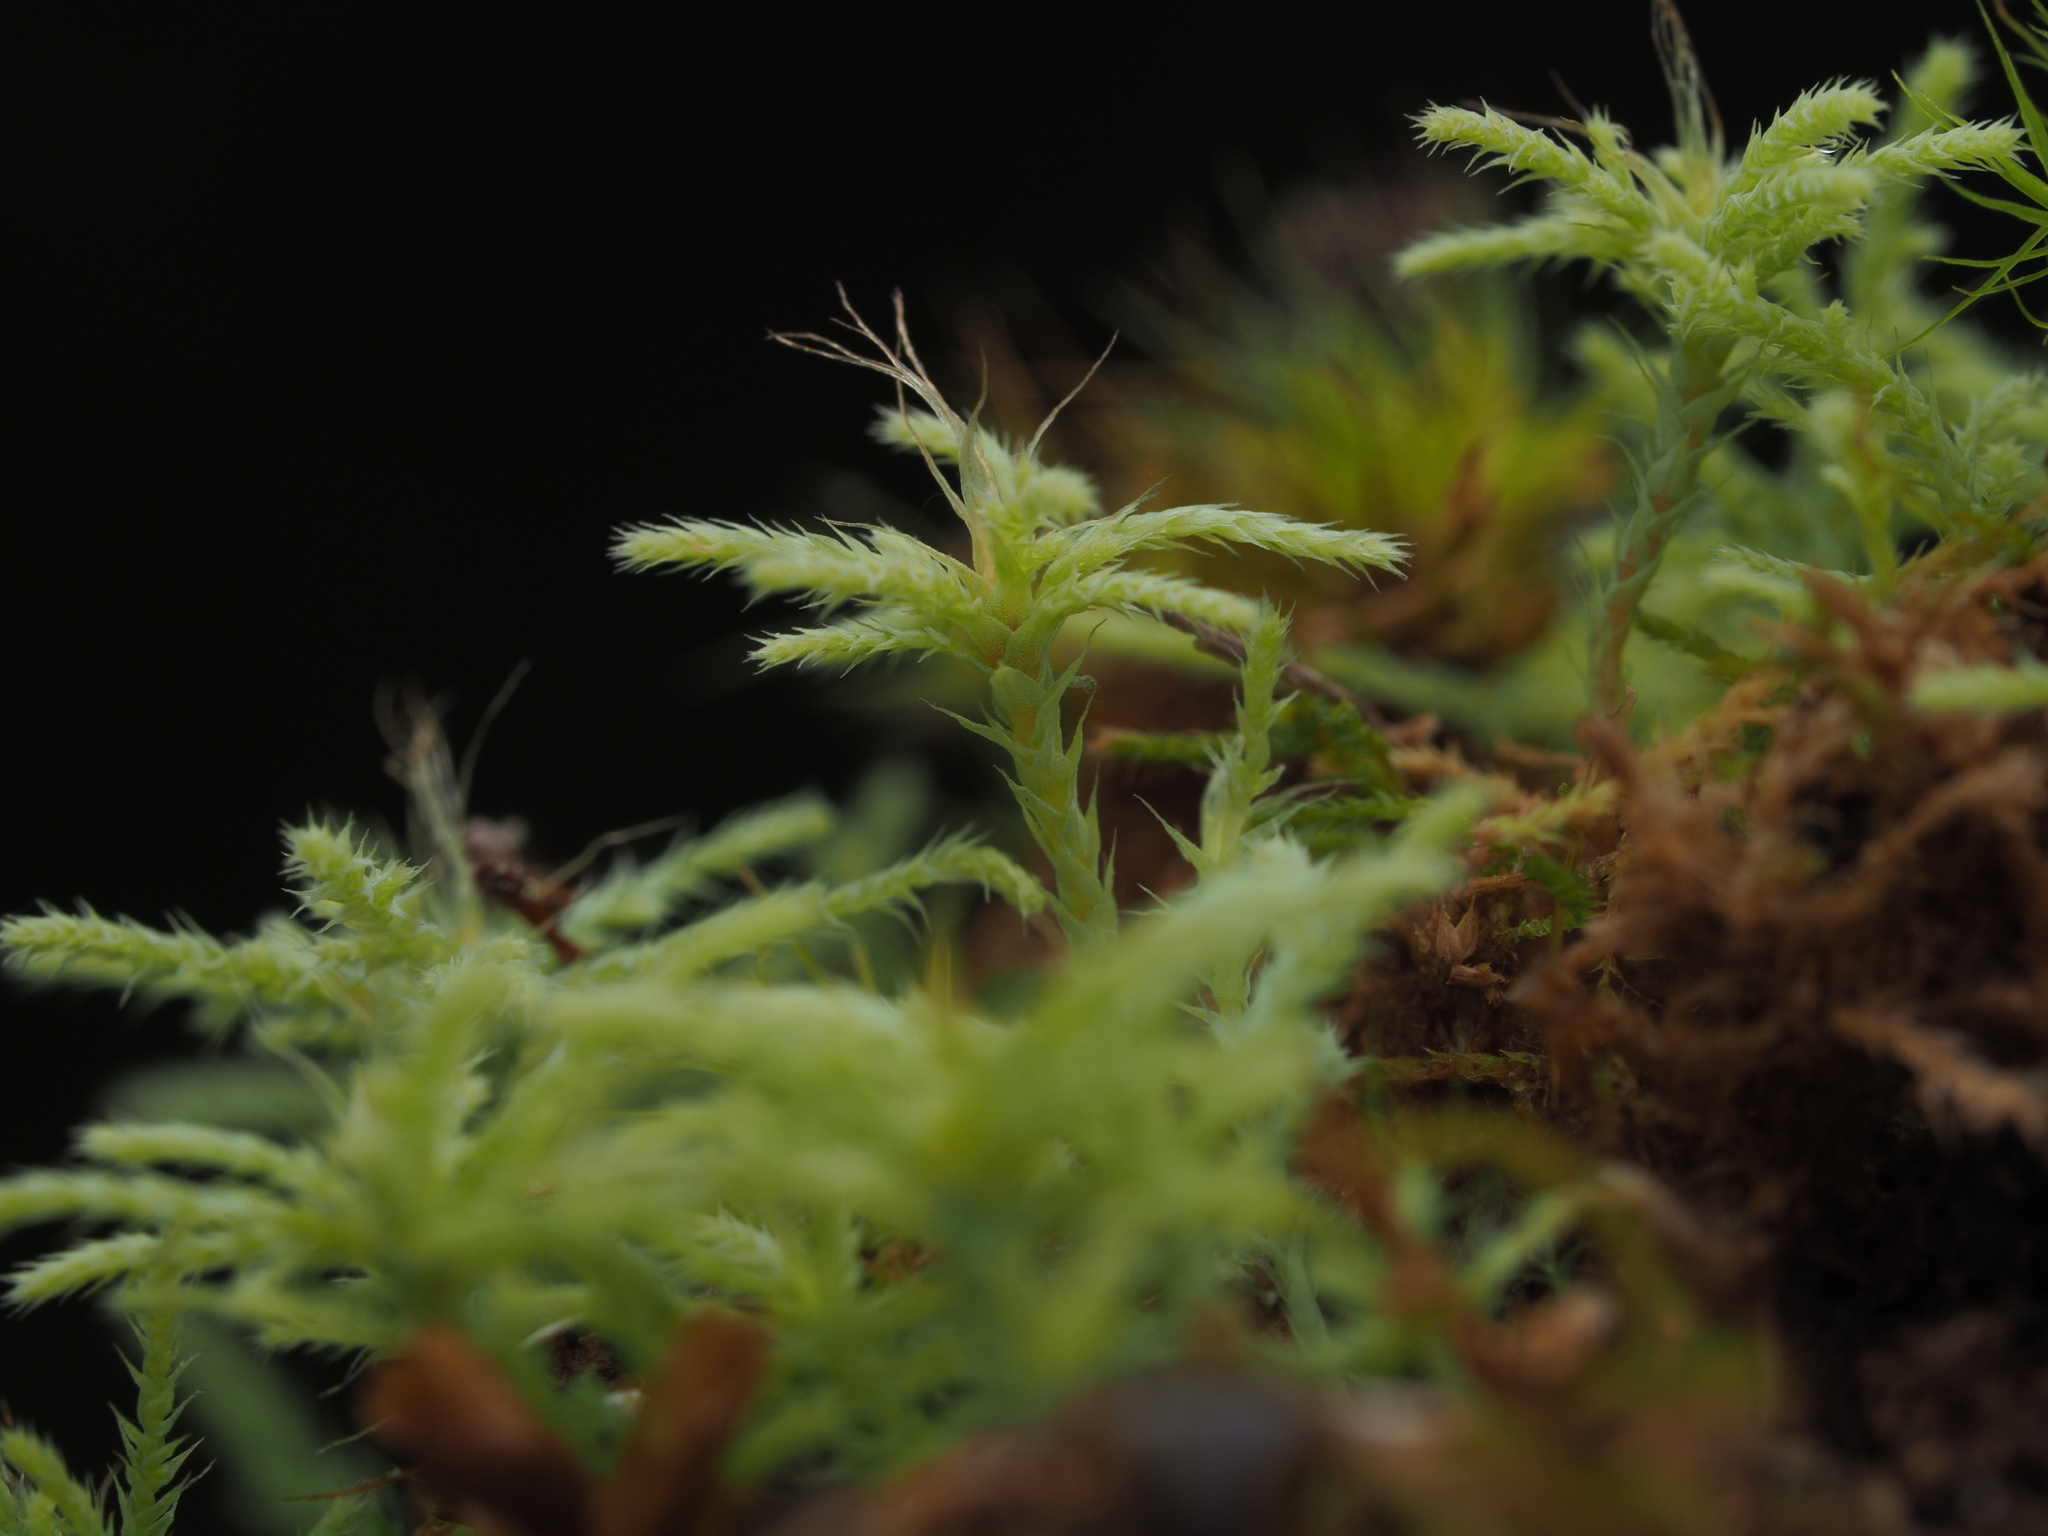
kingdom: Plantae
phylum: Bryophyta
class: Bryopsida
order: Bartramiales
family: Bartramiaceae
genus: Philonotis
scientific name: Philonotis scabrifolia
